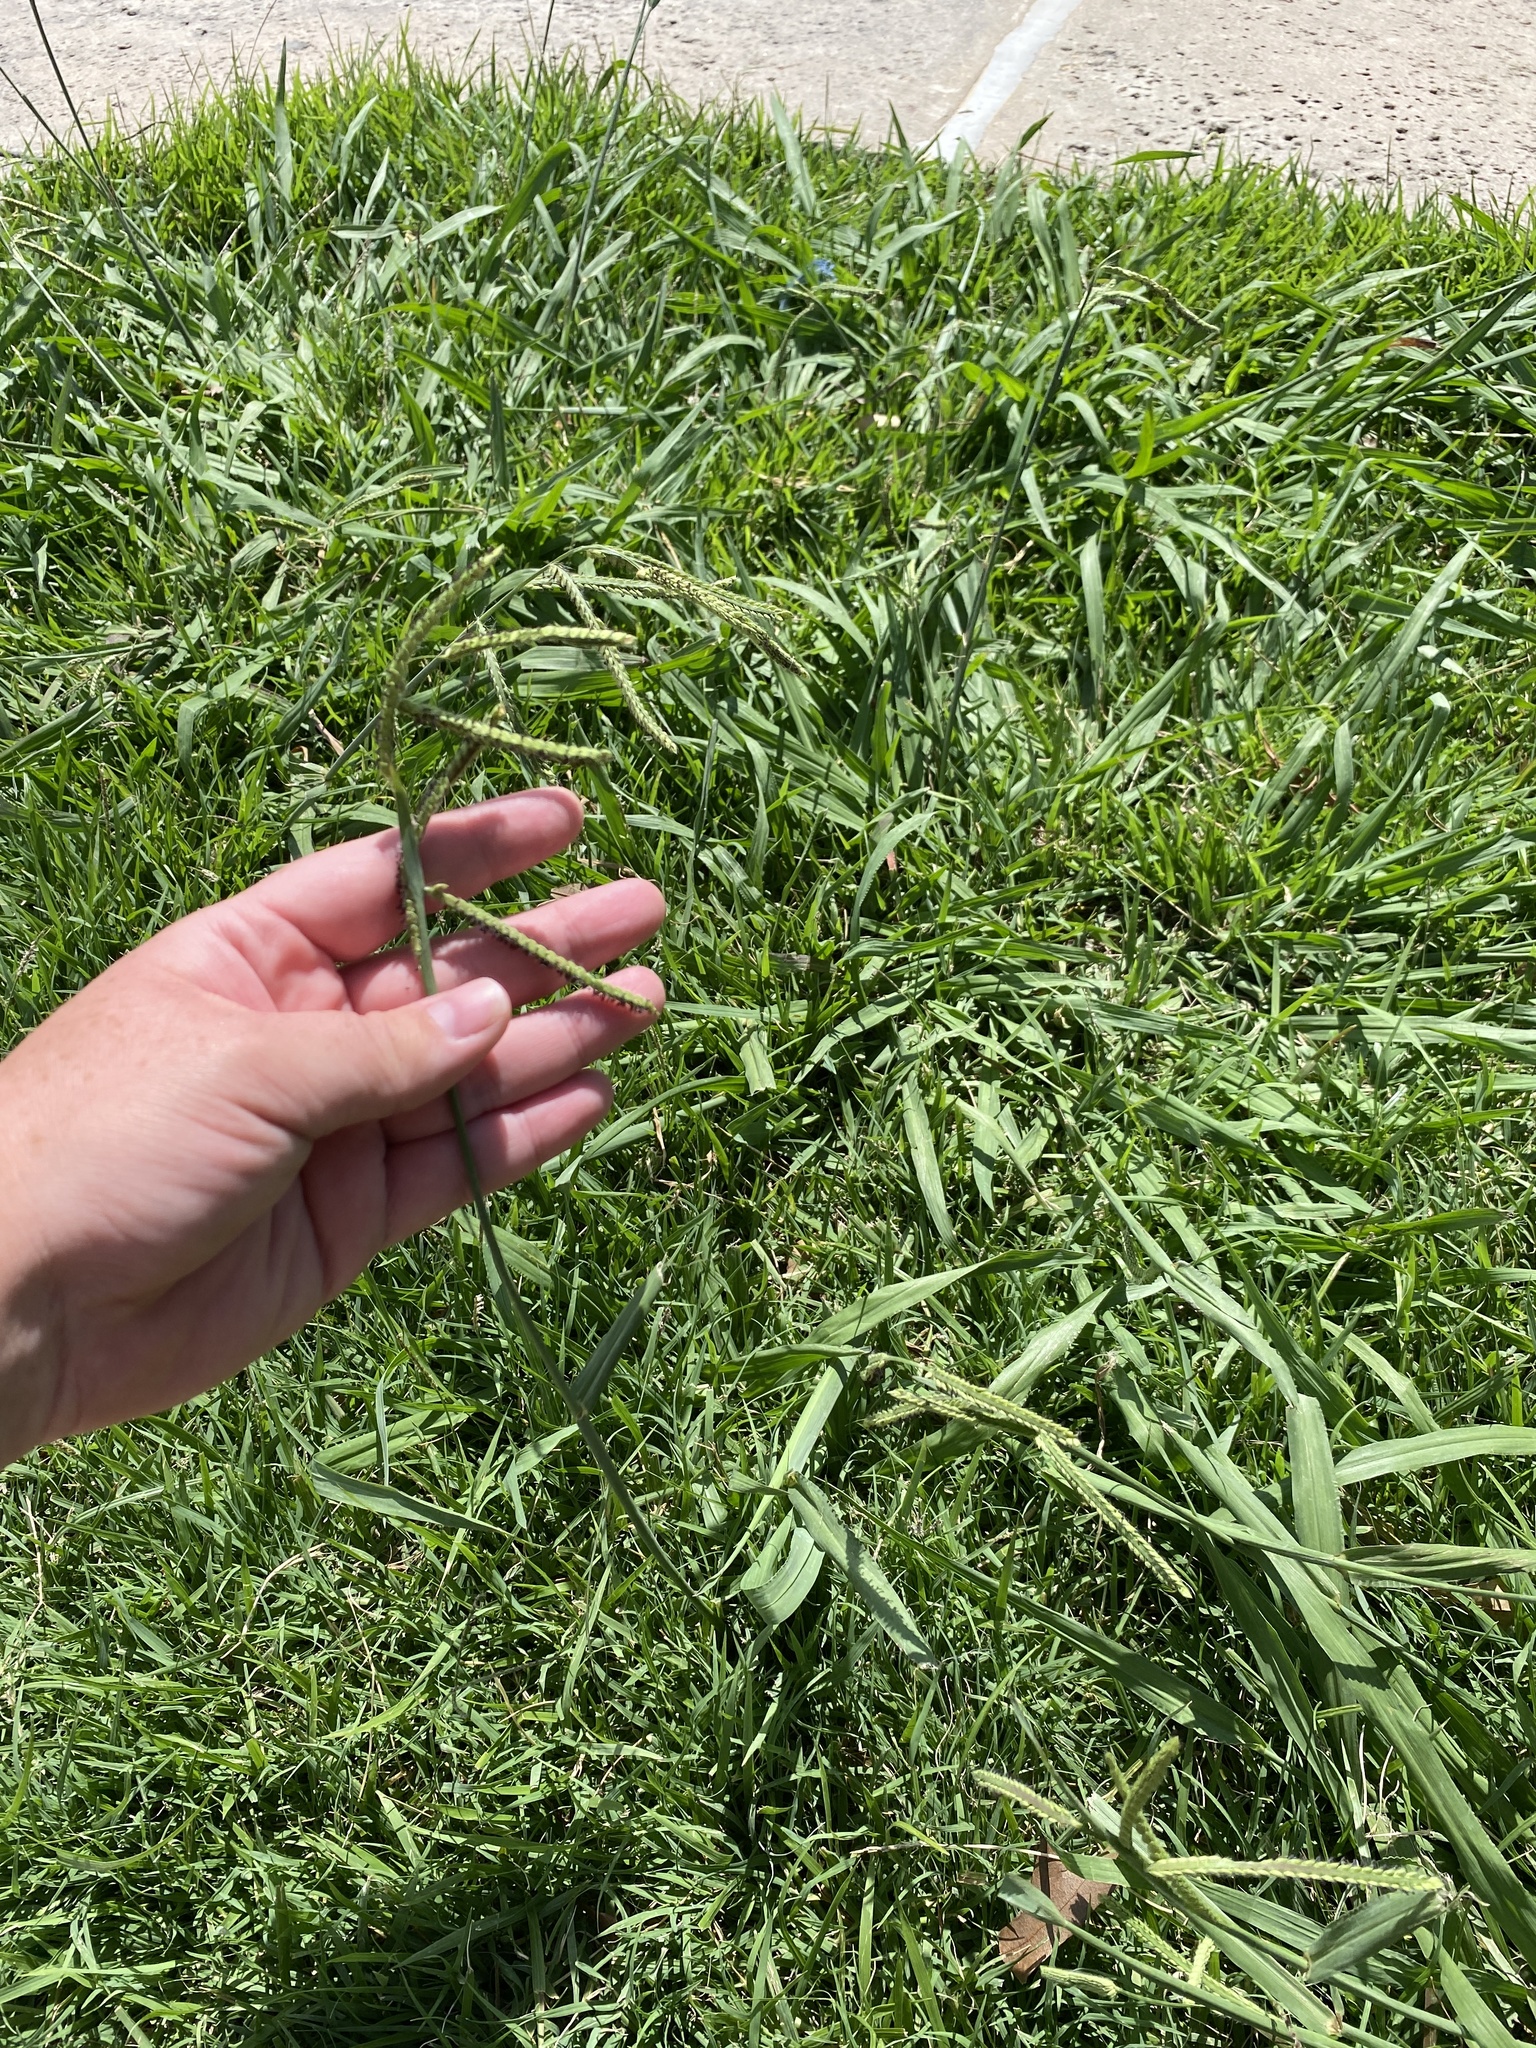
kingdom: Plantae
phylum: Tracheophyta
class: Liliopsida
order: Poales
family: Poaceae
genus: Paspalum
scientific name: Paspalum dilatatum
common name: Dallisgrass
